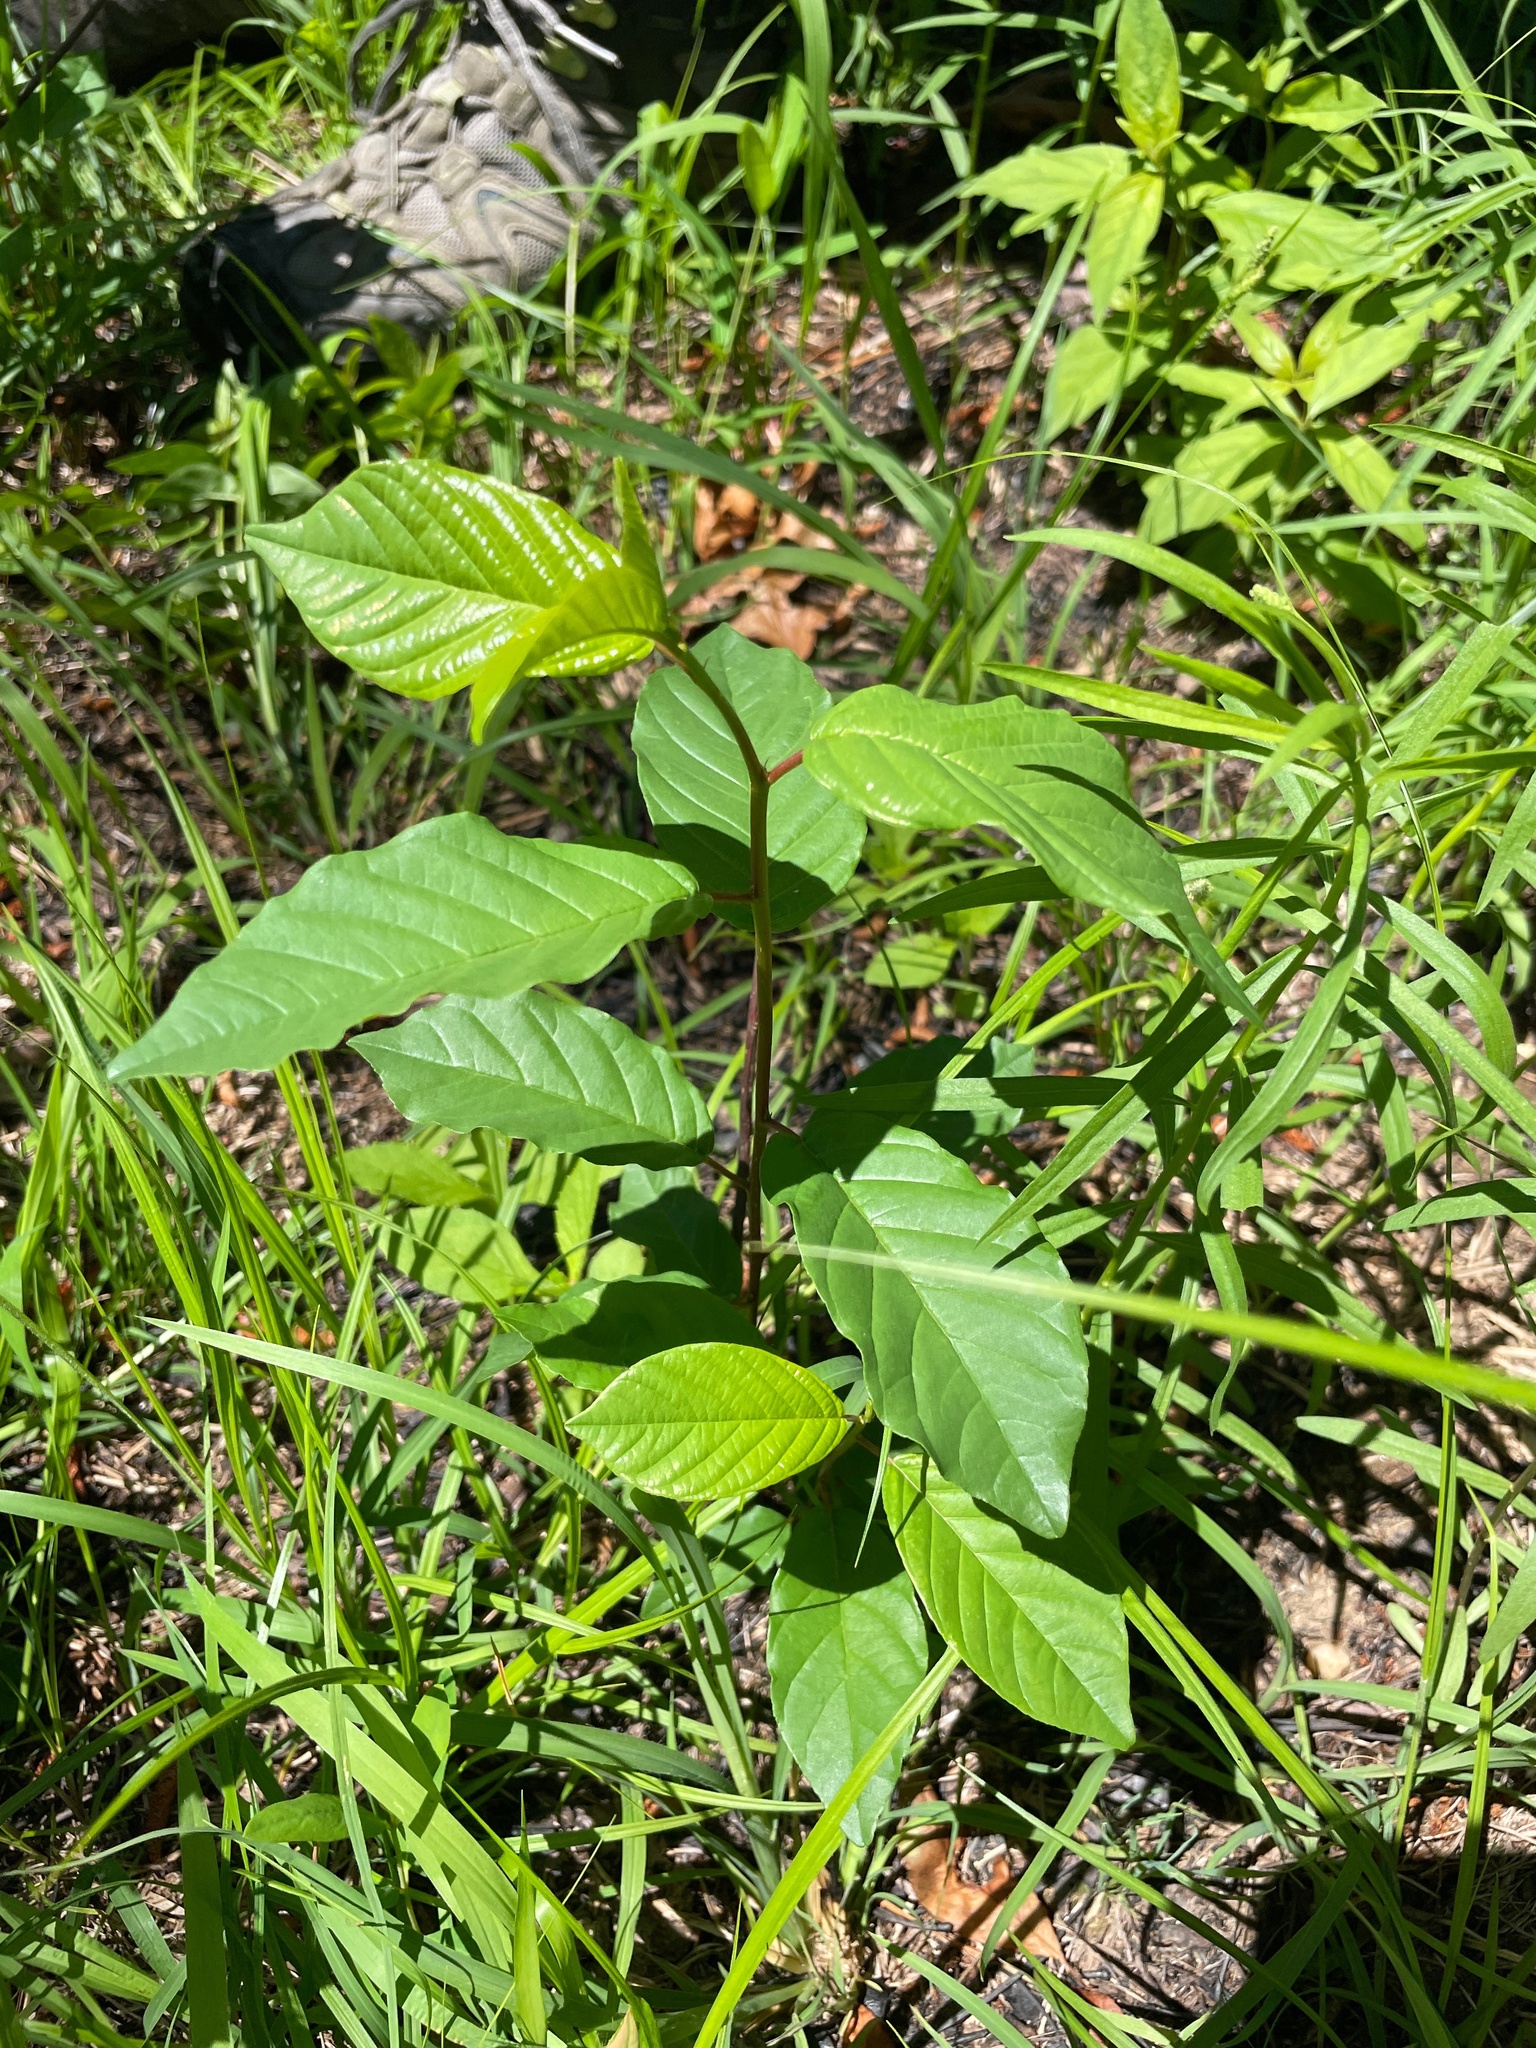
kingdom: Plantae
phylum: Tracheophyta
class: Magnoliopsida
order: Rosales
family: Rhamnaceae
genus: Frangula
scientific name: Frangula alnus
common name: Alder buckthorn
